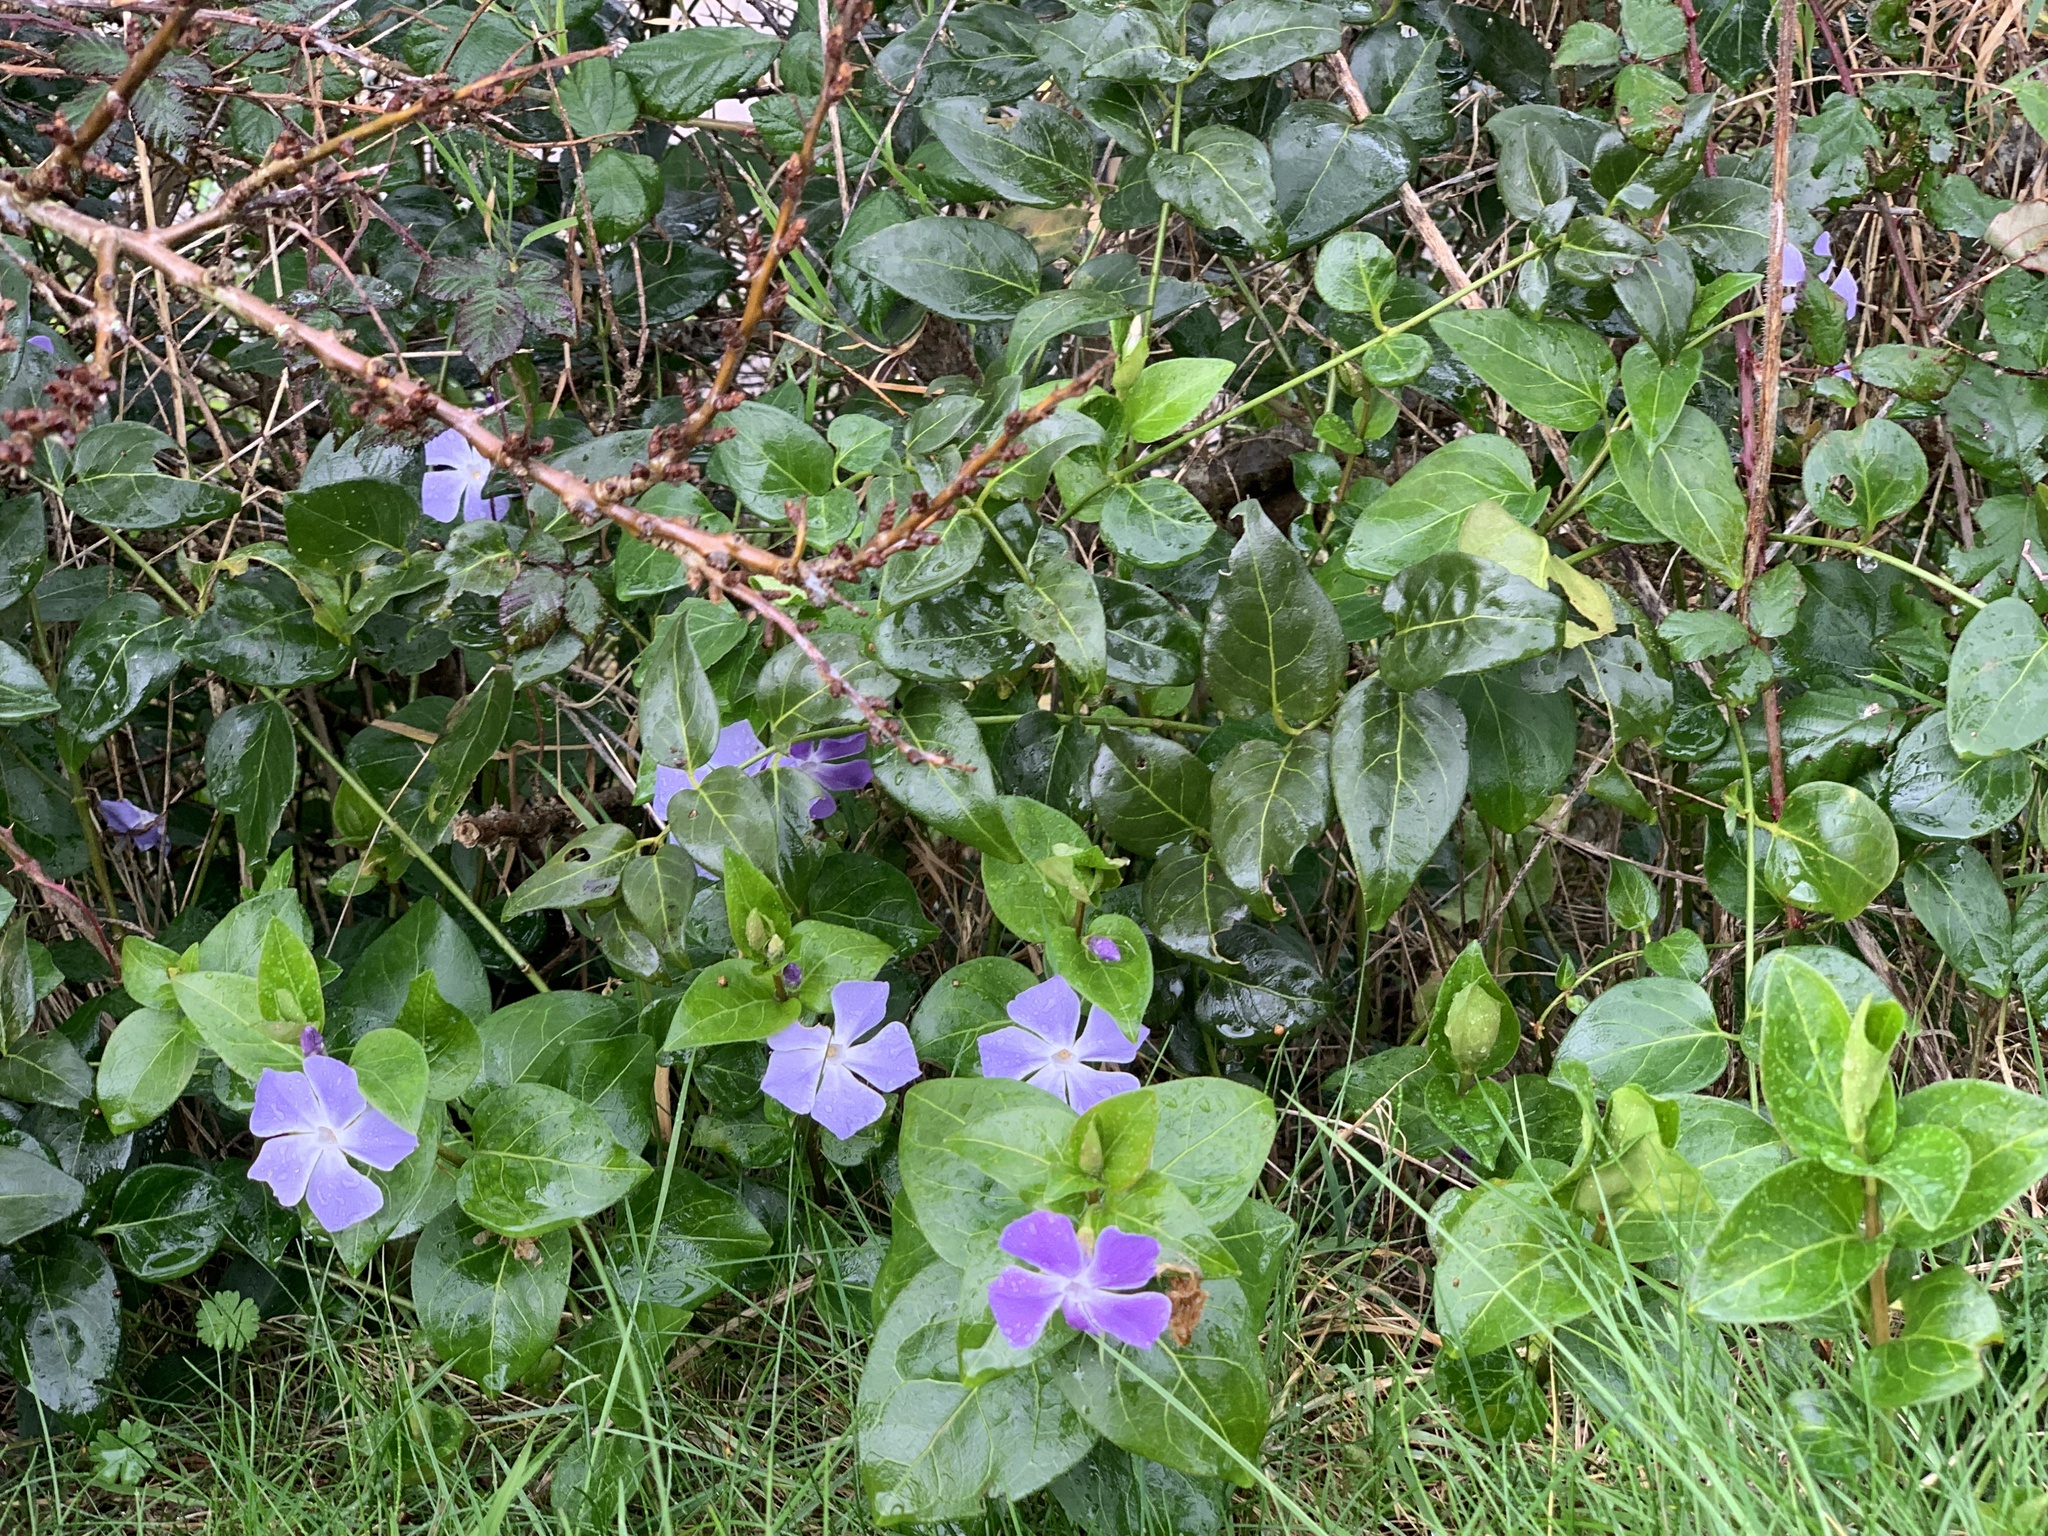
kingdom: Plantae
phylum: Tracheophyta
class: Magnoliopsida
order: Gentianales
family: Apocynaceae
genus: Vinca
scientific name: Vinca major
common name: Greater periwinkle
